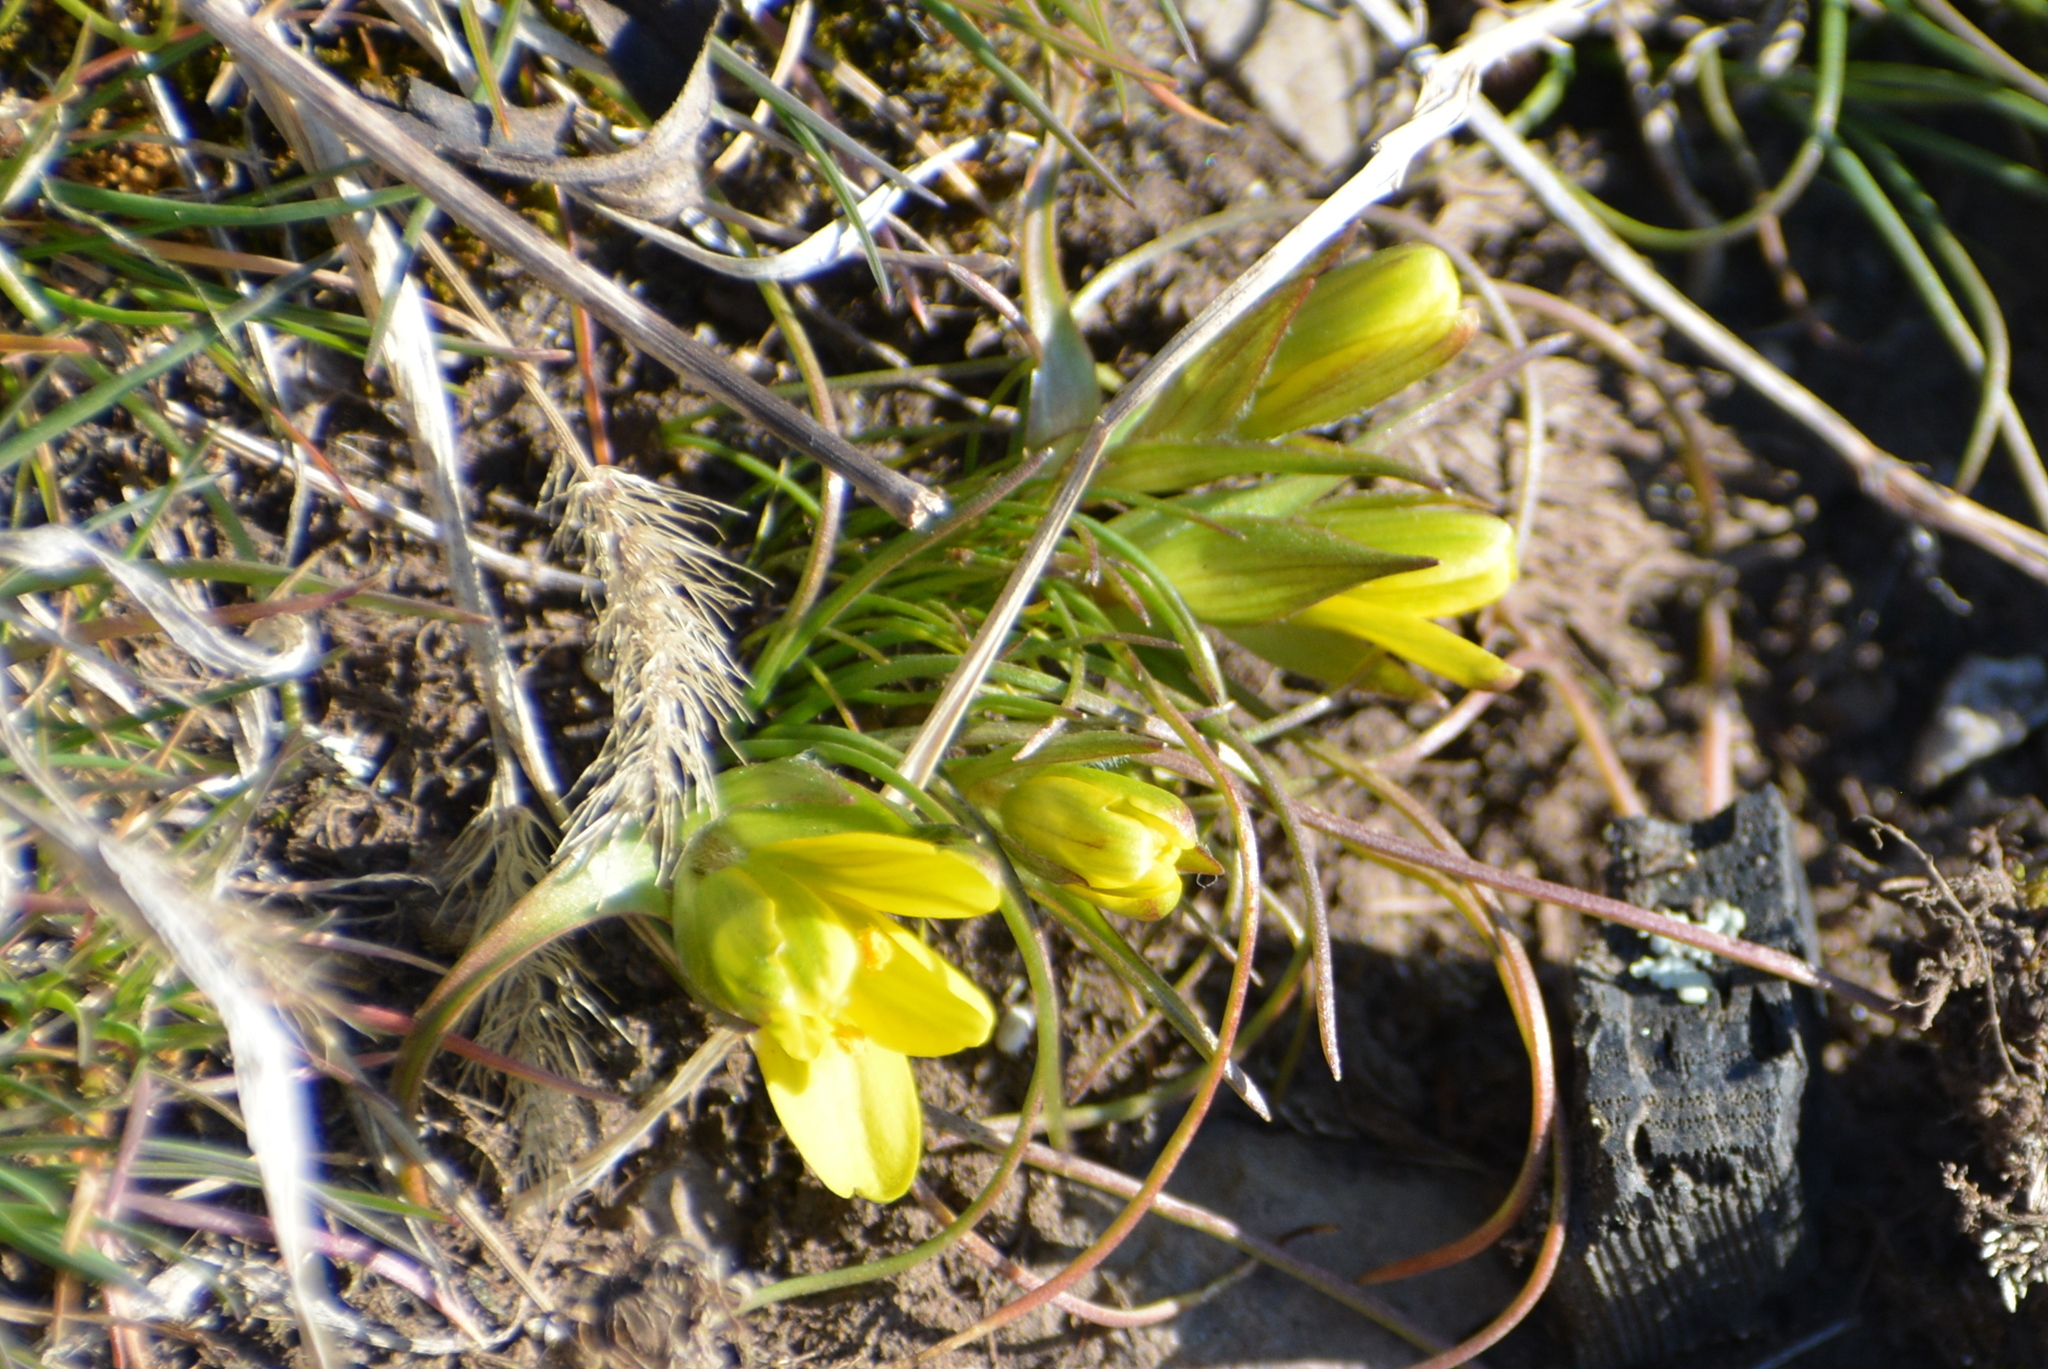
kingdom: Plantae
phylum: Tracheophyta
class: Liliopsida
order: Liliales
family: Liliaceae
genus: Gagea
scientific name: Gagea bohemica
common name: Early star-of-bethlehem
